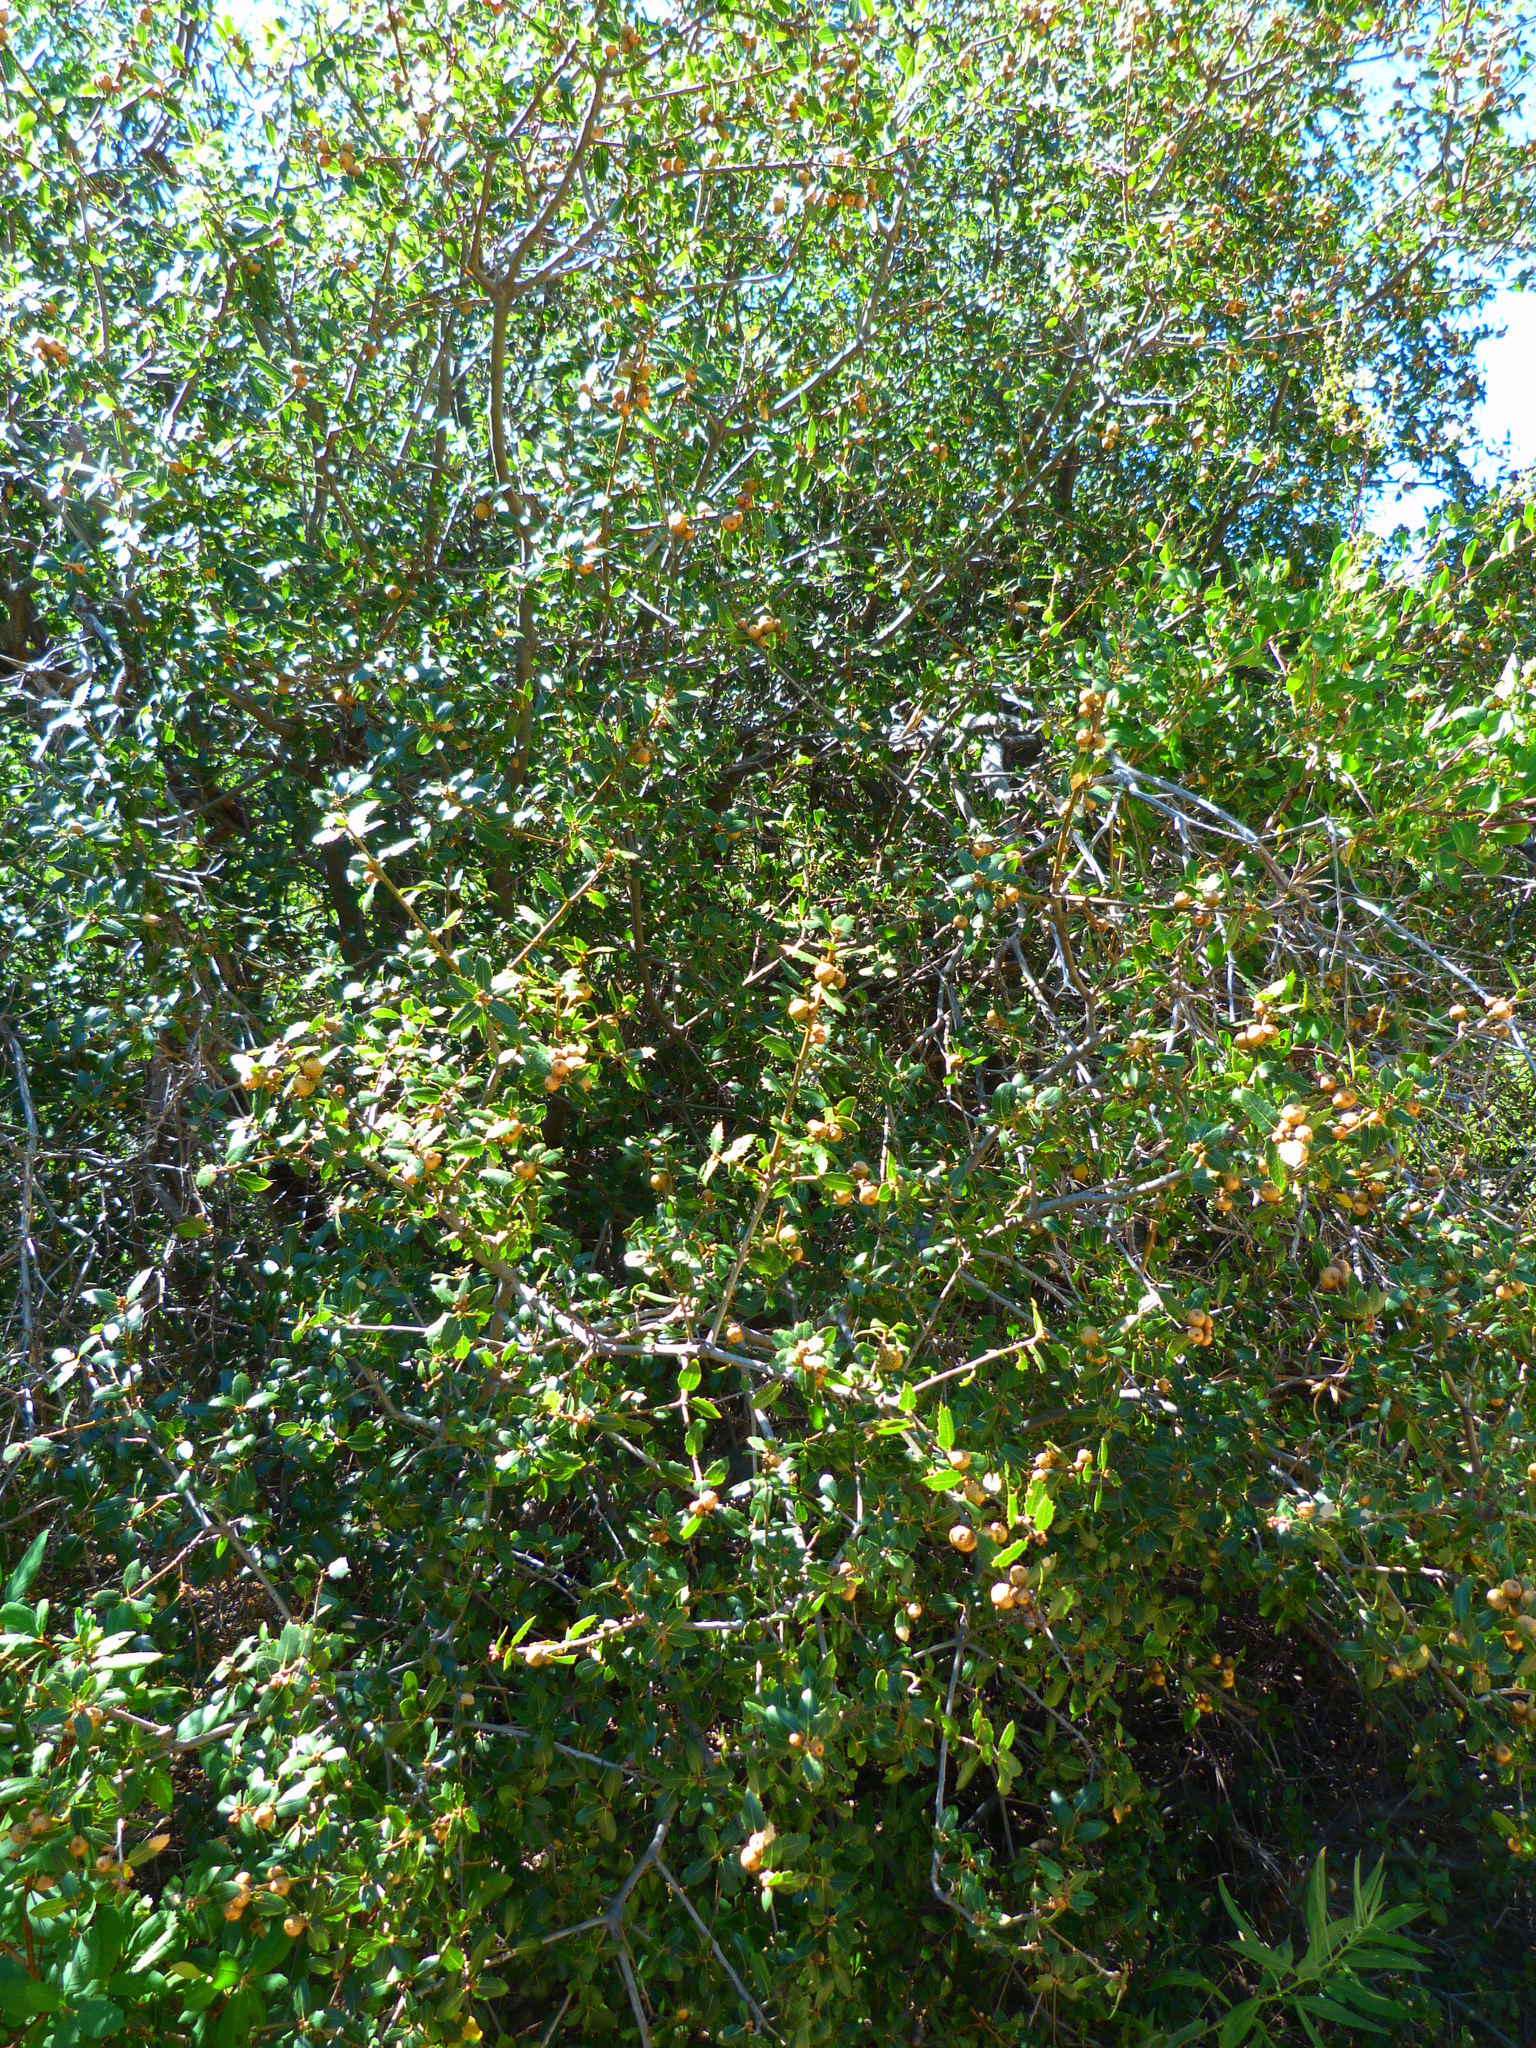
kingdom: Plantae
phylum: Tracheophyta
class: Magnoliopsida
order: Fagales
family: Fagaceae
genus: Quercus
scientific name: Quercus wislizeni
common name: Interior live oak
